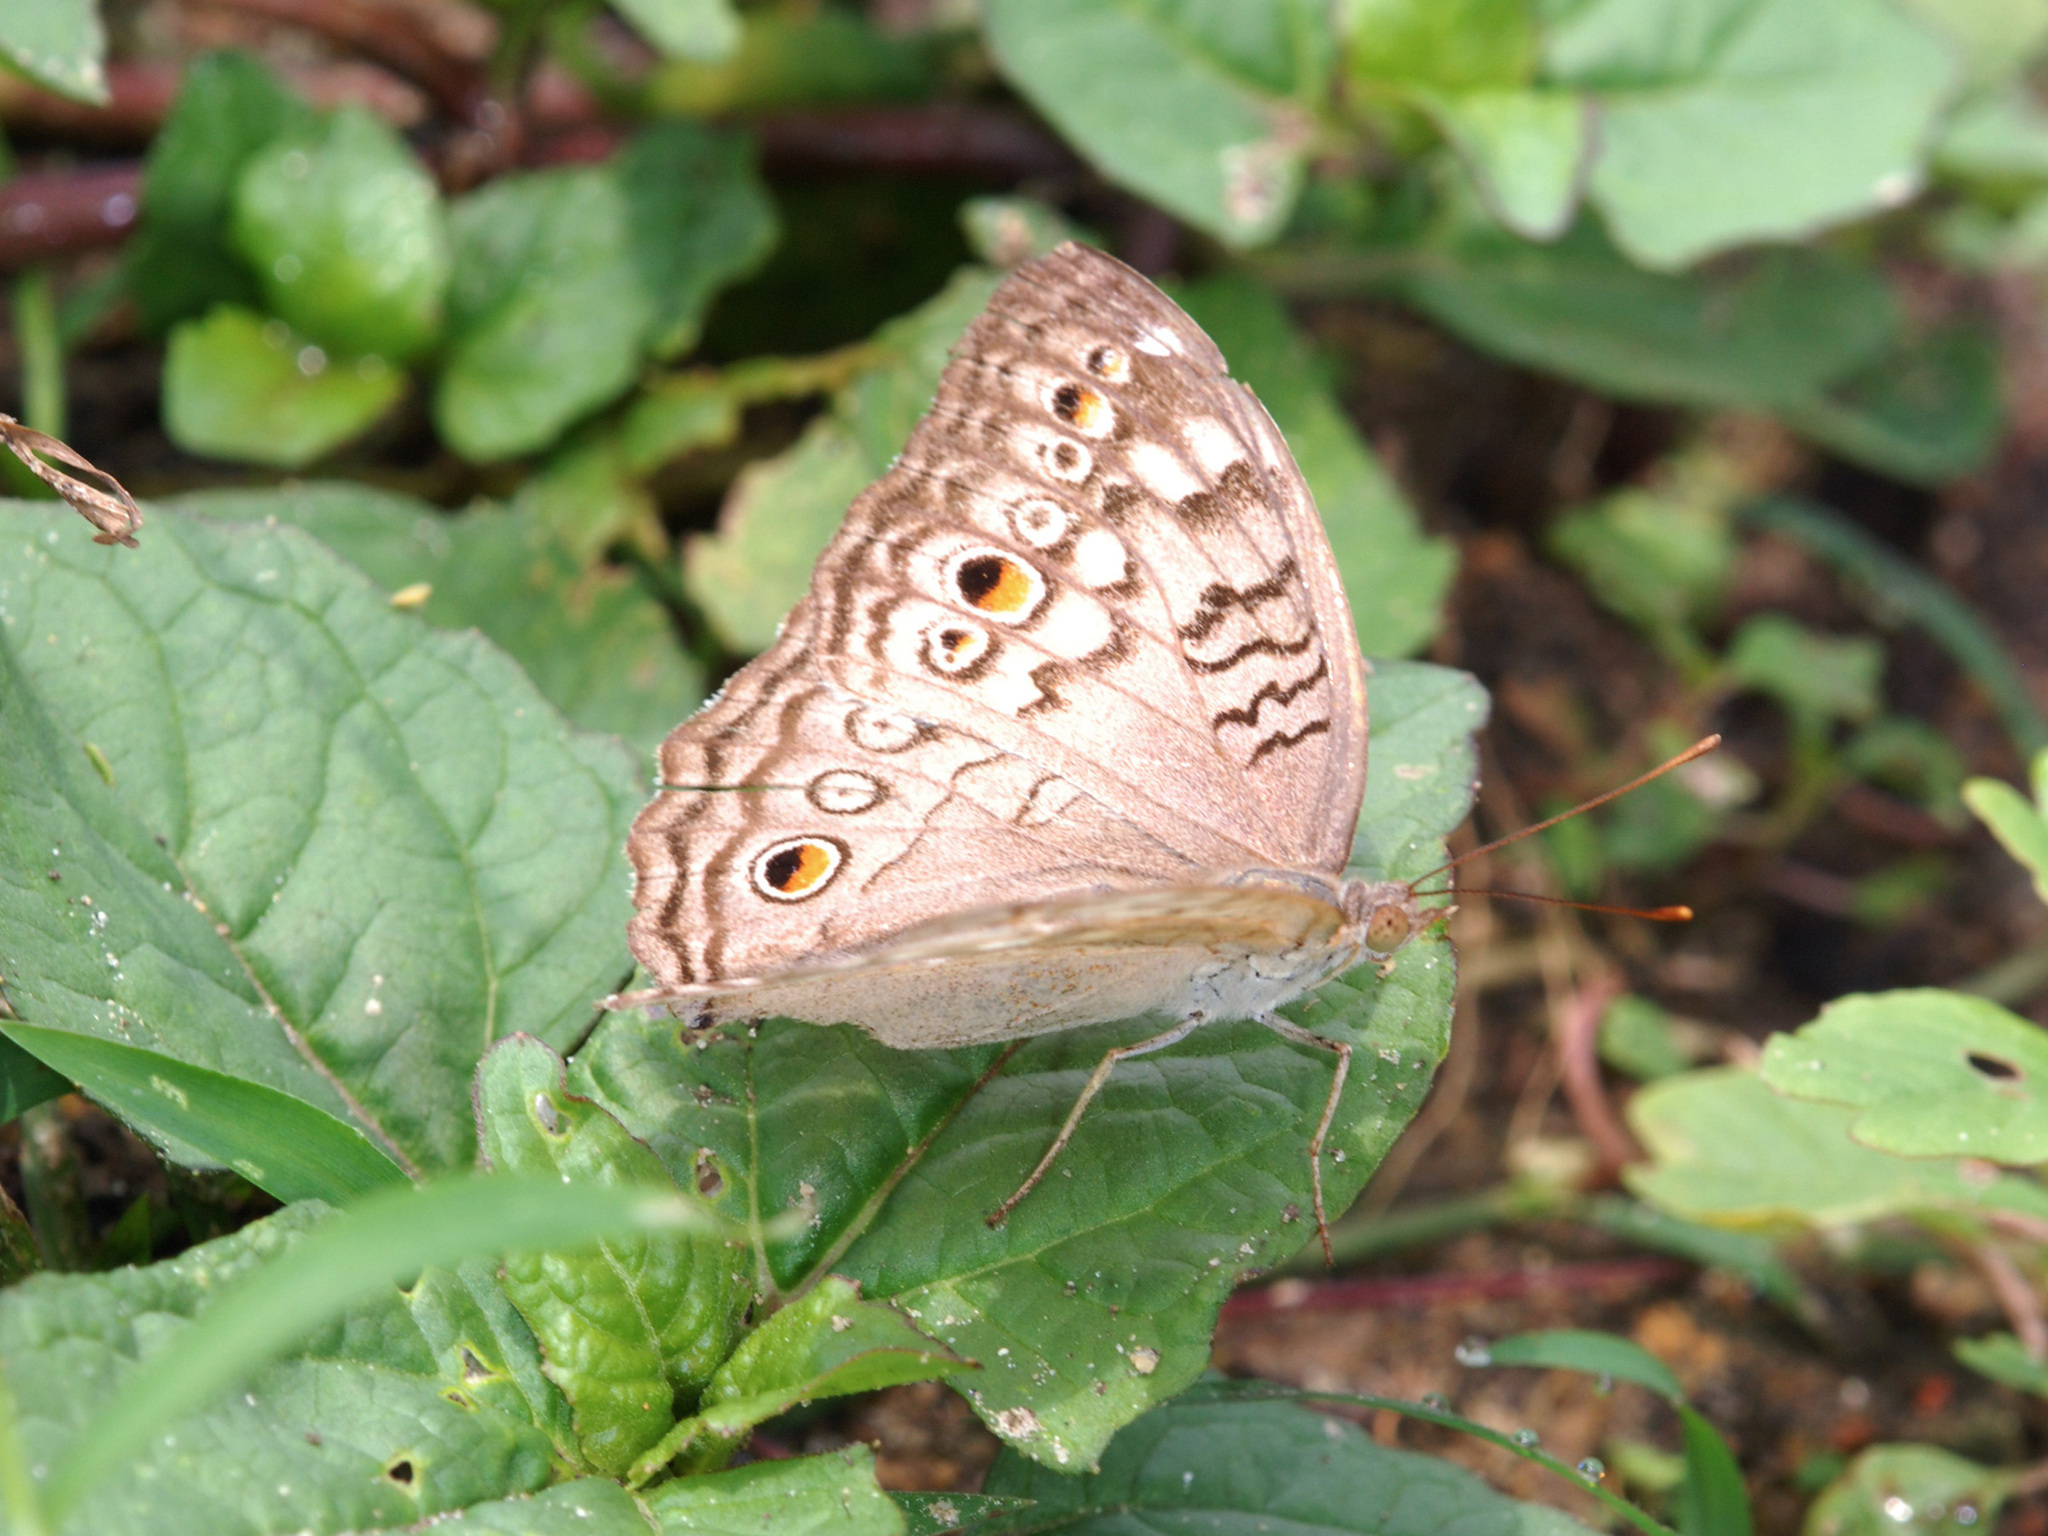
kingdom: Animalia
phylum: Arthropoda
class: Insecta
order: Lepidoptera
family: Nymphalidae
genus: Junonia
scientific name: Junonia atlites
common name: Grey pansy
